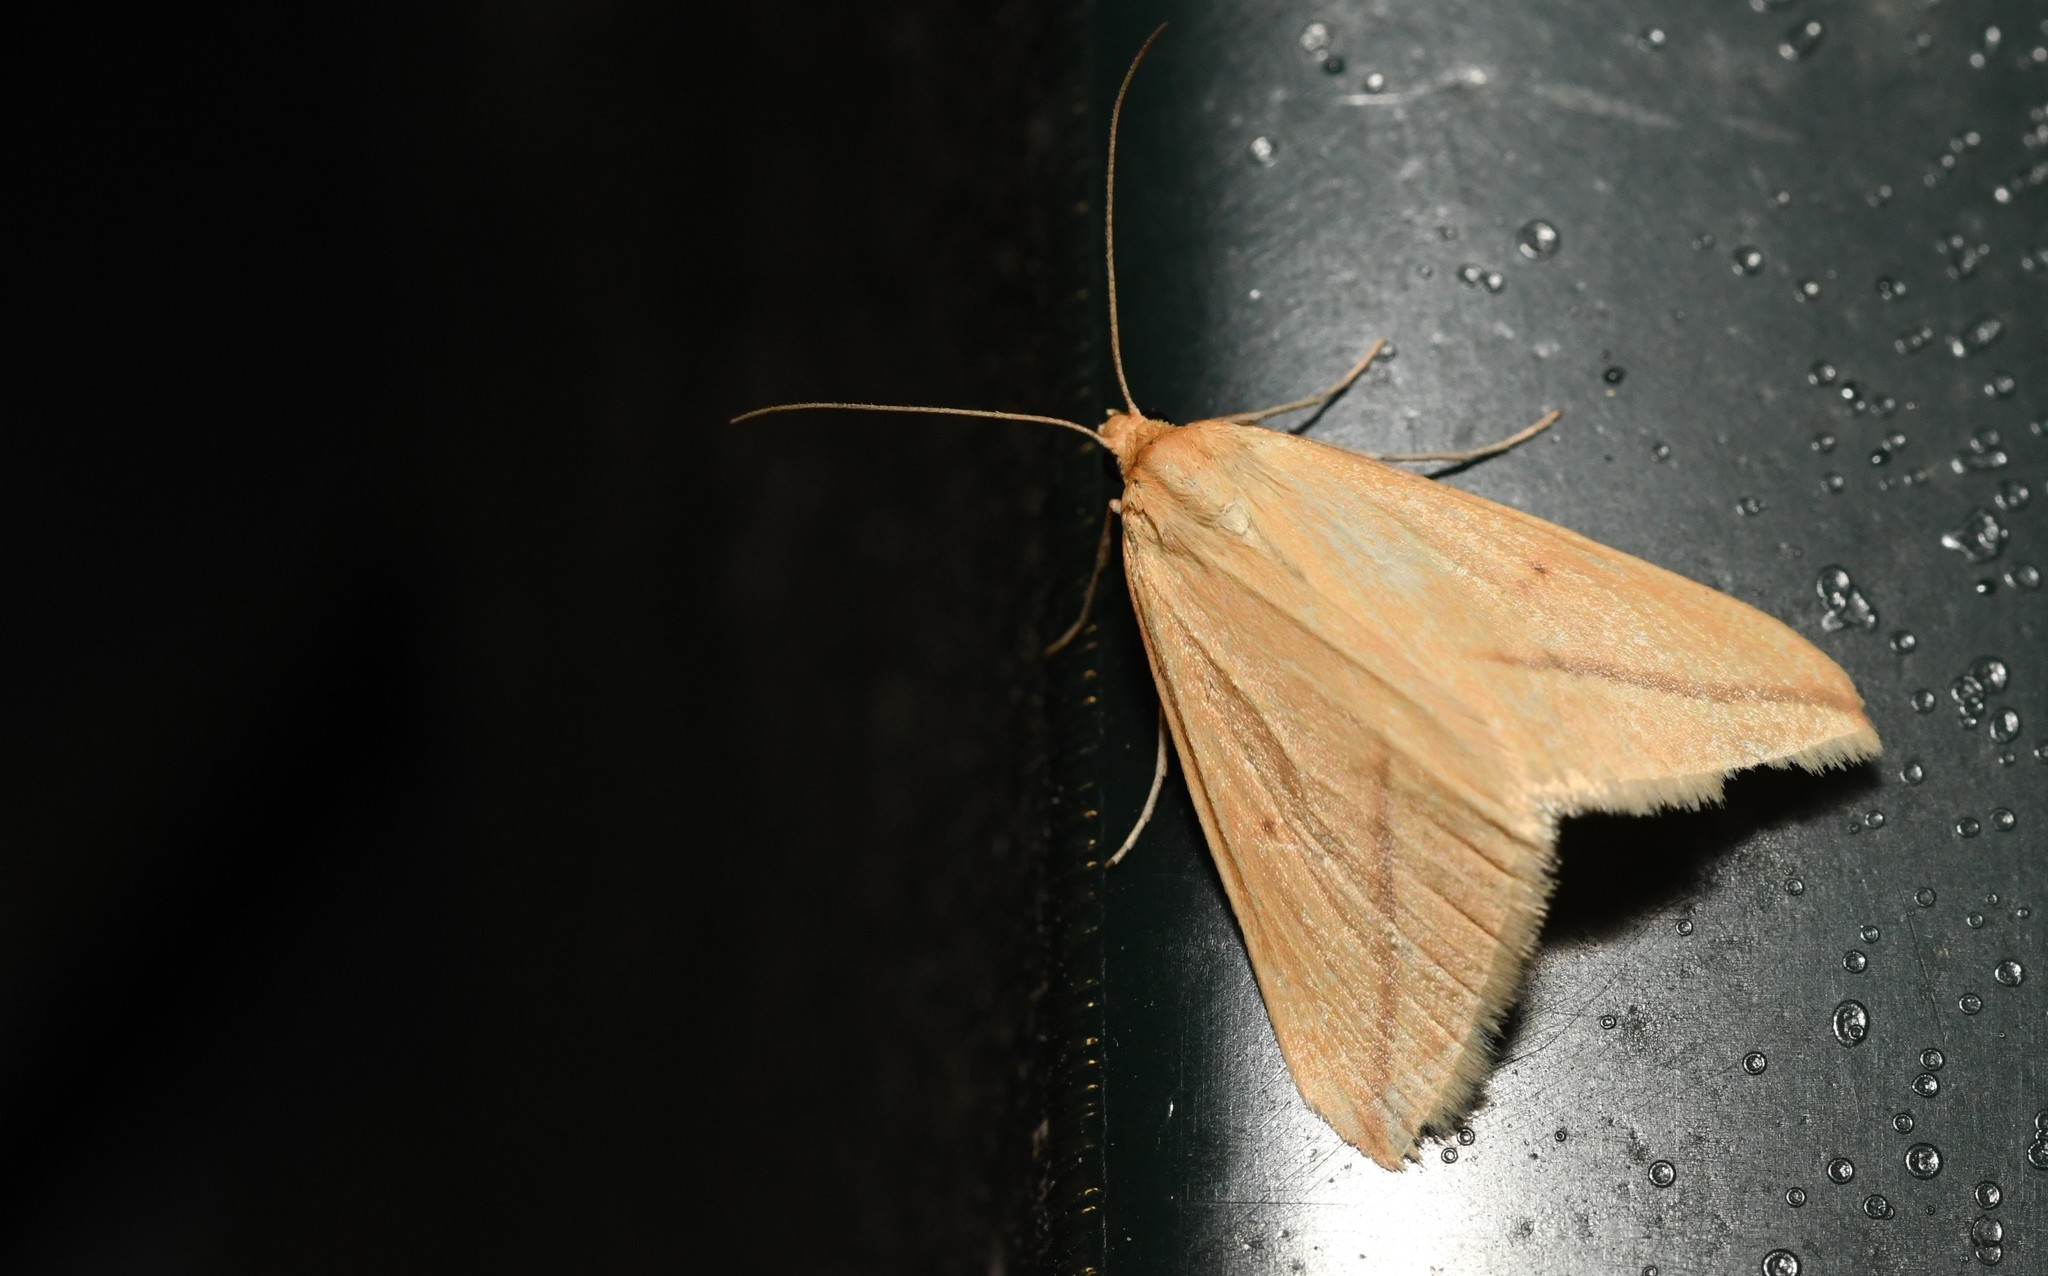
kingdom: Animalia
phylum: Arthropoda
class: Insecta
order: Lepidoptera
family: Geometridae
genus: Rhodometra
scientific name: Rhodometra sacraria
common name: Vestal
